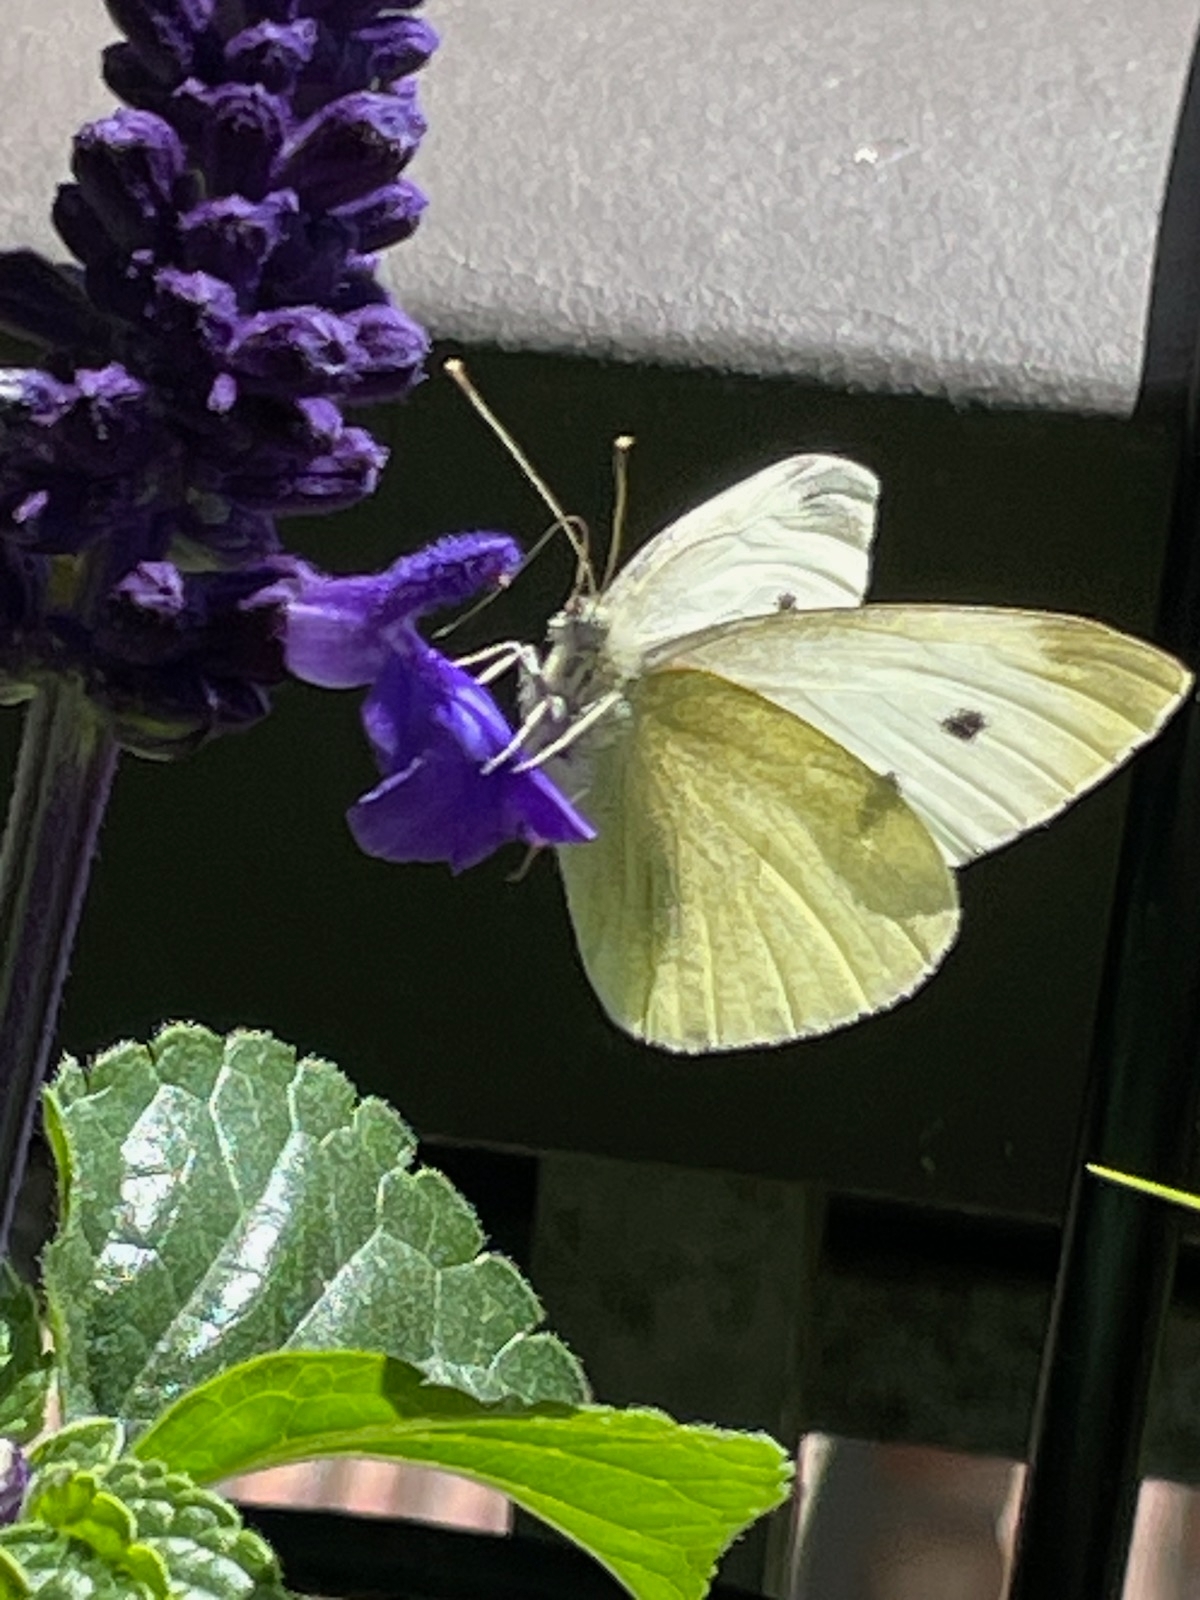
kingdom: Animalia
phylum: Arthropoda
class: Insecta
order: Lepidoptera
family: Pieridae
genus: Pieris
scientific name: Pieris rapae
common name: Small white
